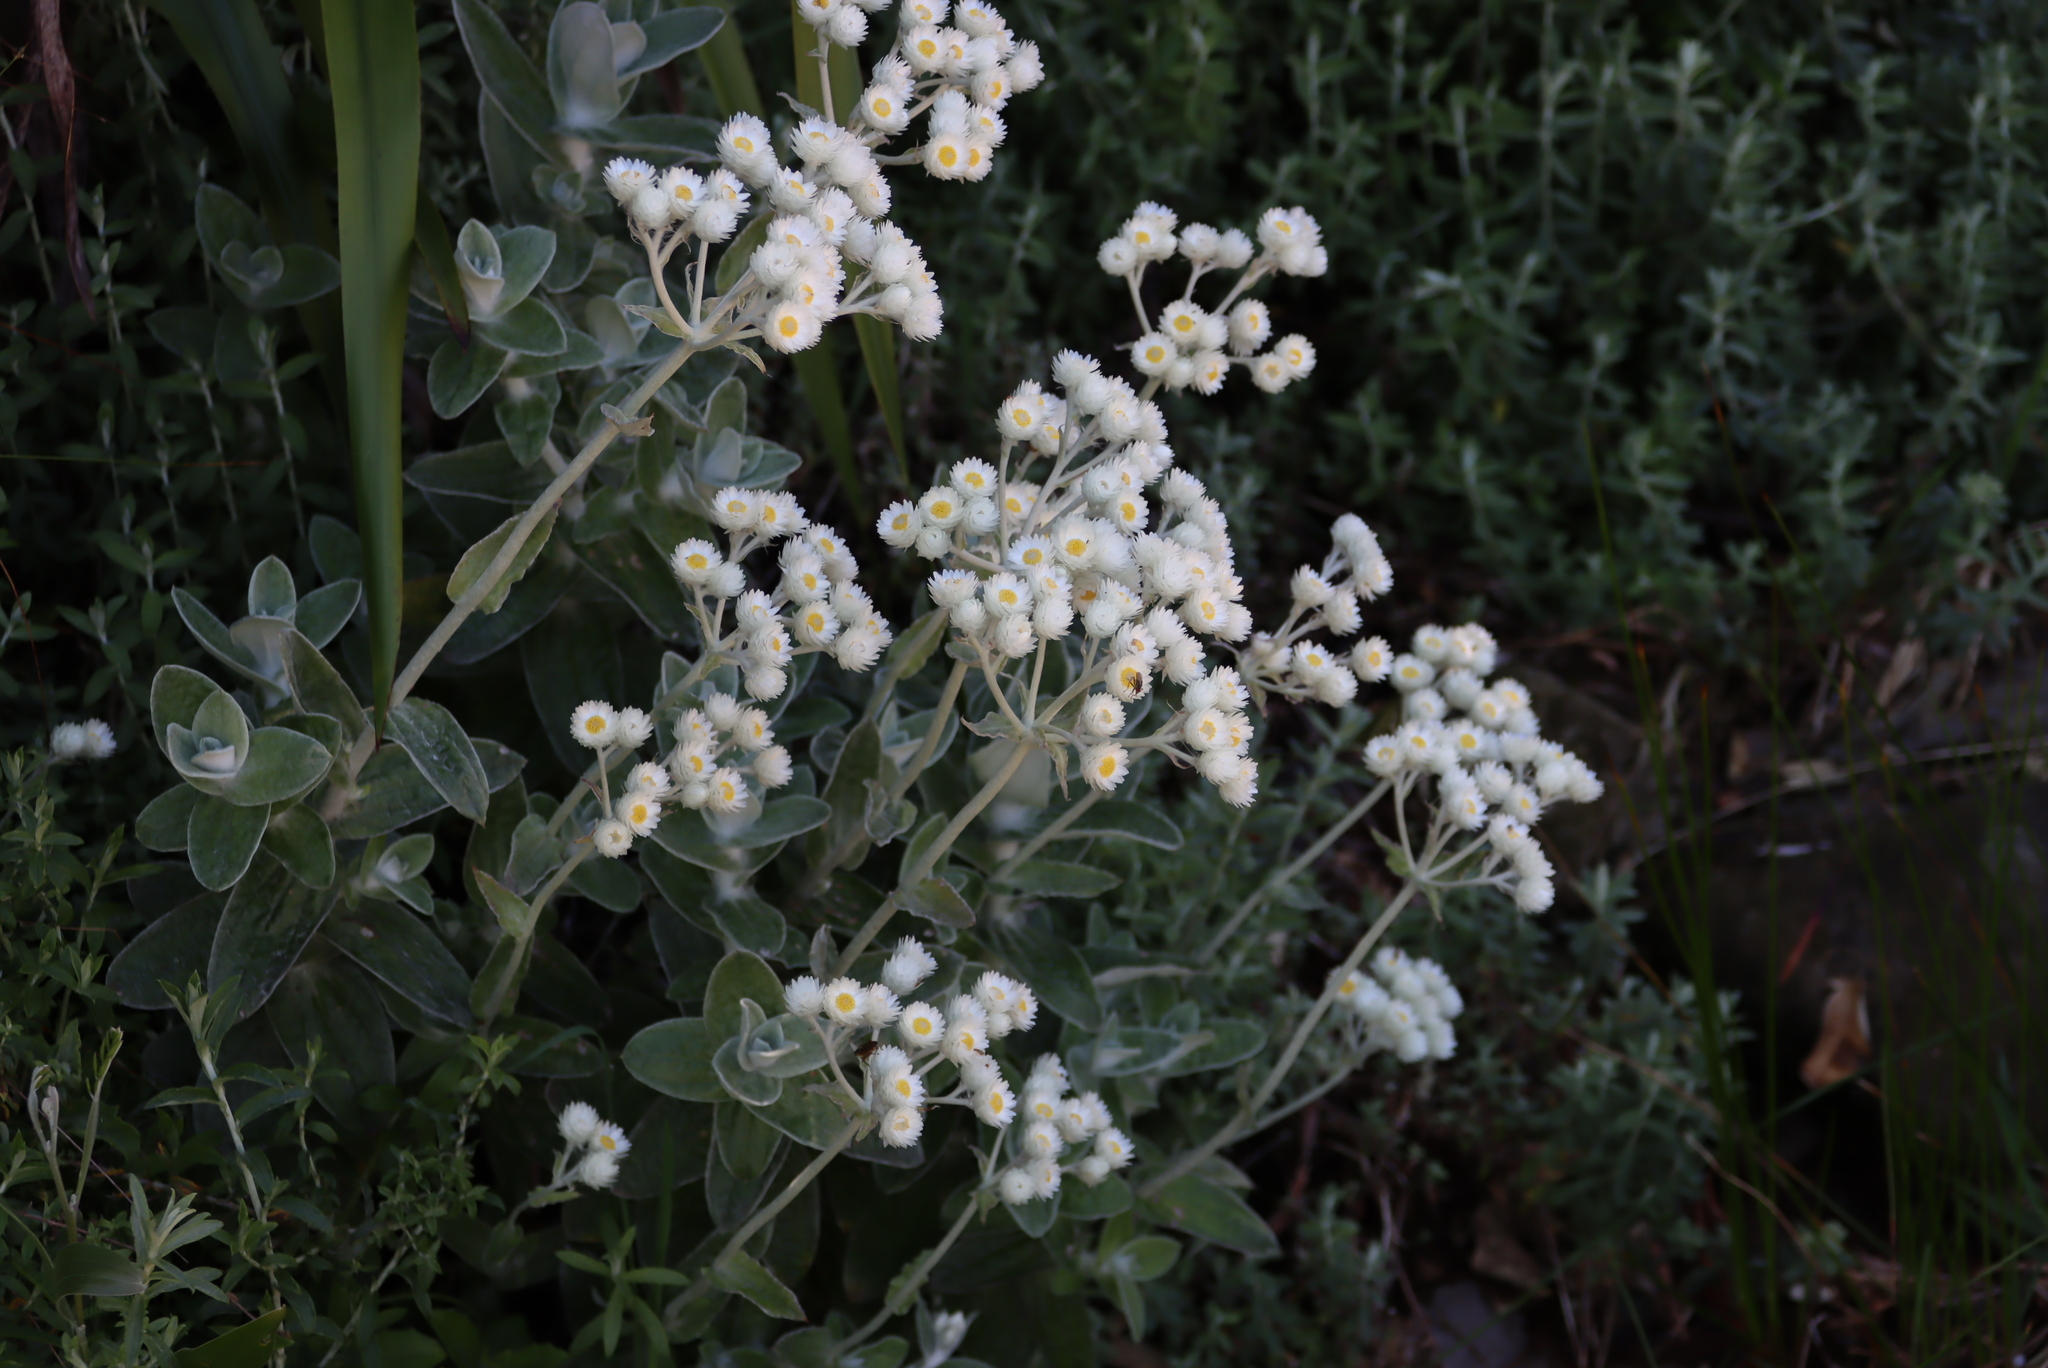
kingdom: Plantae
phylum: Tracheophyta
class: Magnoliopsida
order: Asterales
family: Asteraceae
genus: Helichrysum
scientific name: Helichrysum fruticans
